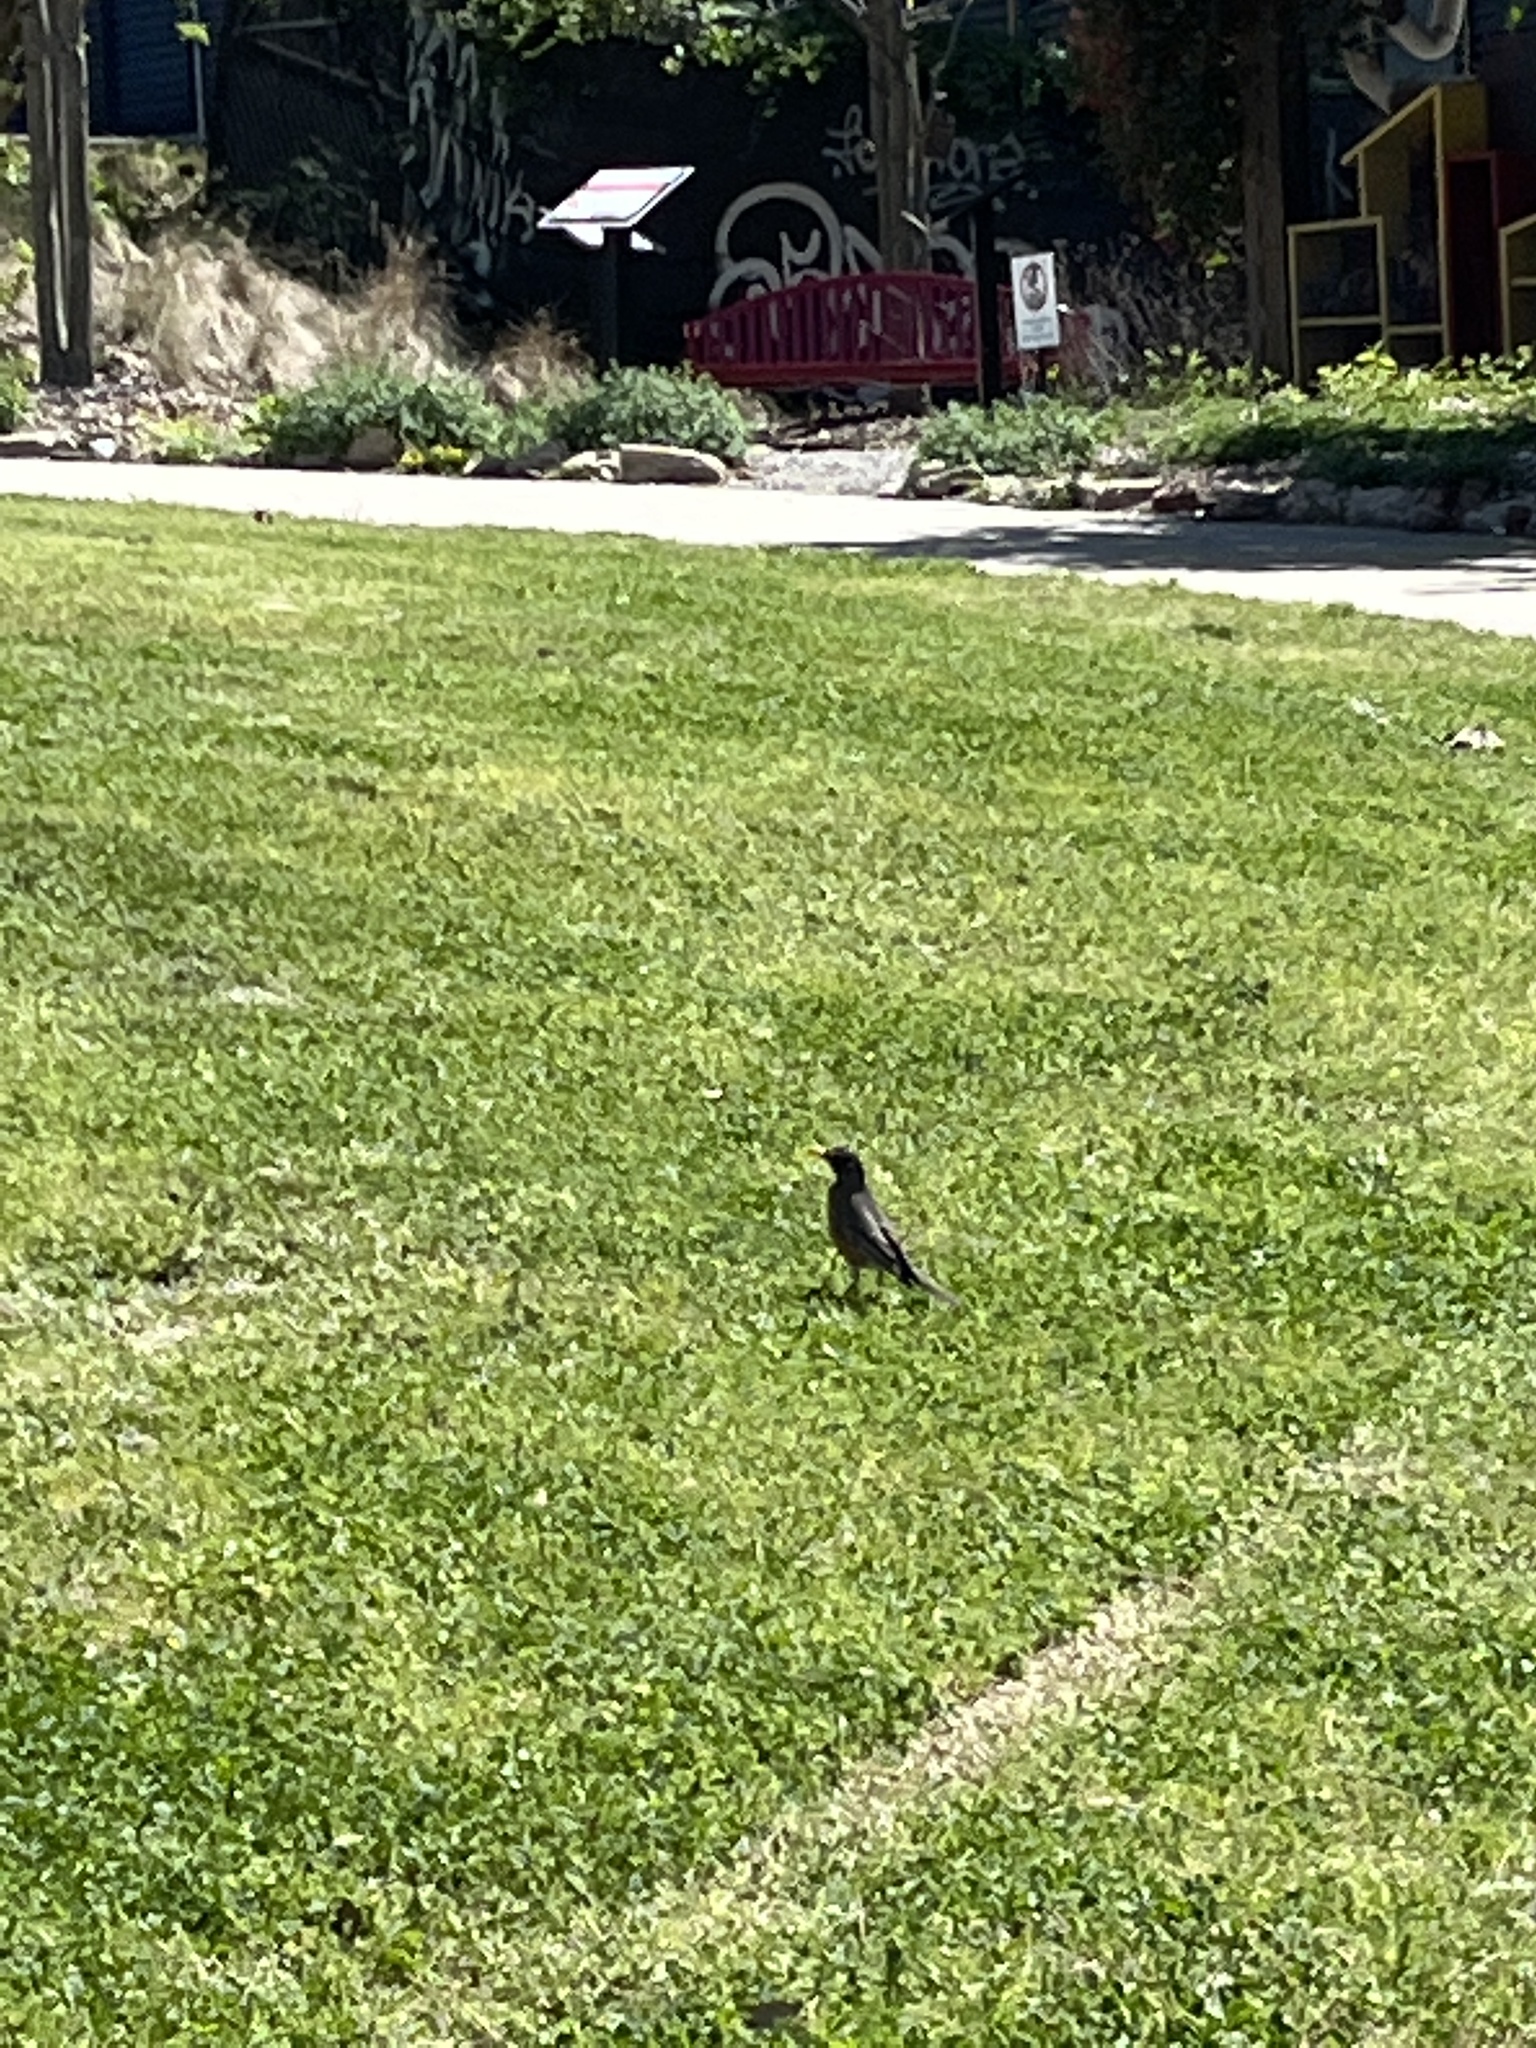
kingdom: Animalia
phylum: Chordata
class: Aves
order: Passeriformes
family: Turdidae
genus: Turdus
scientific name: Turdus migratorius
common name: American robin
